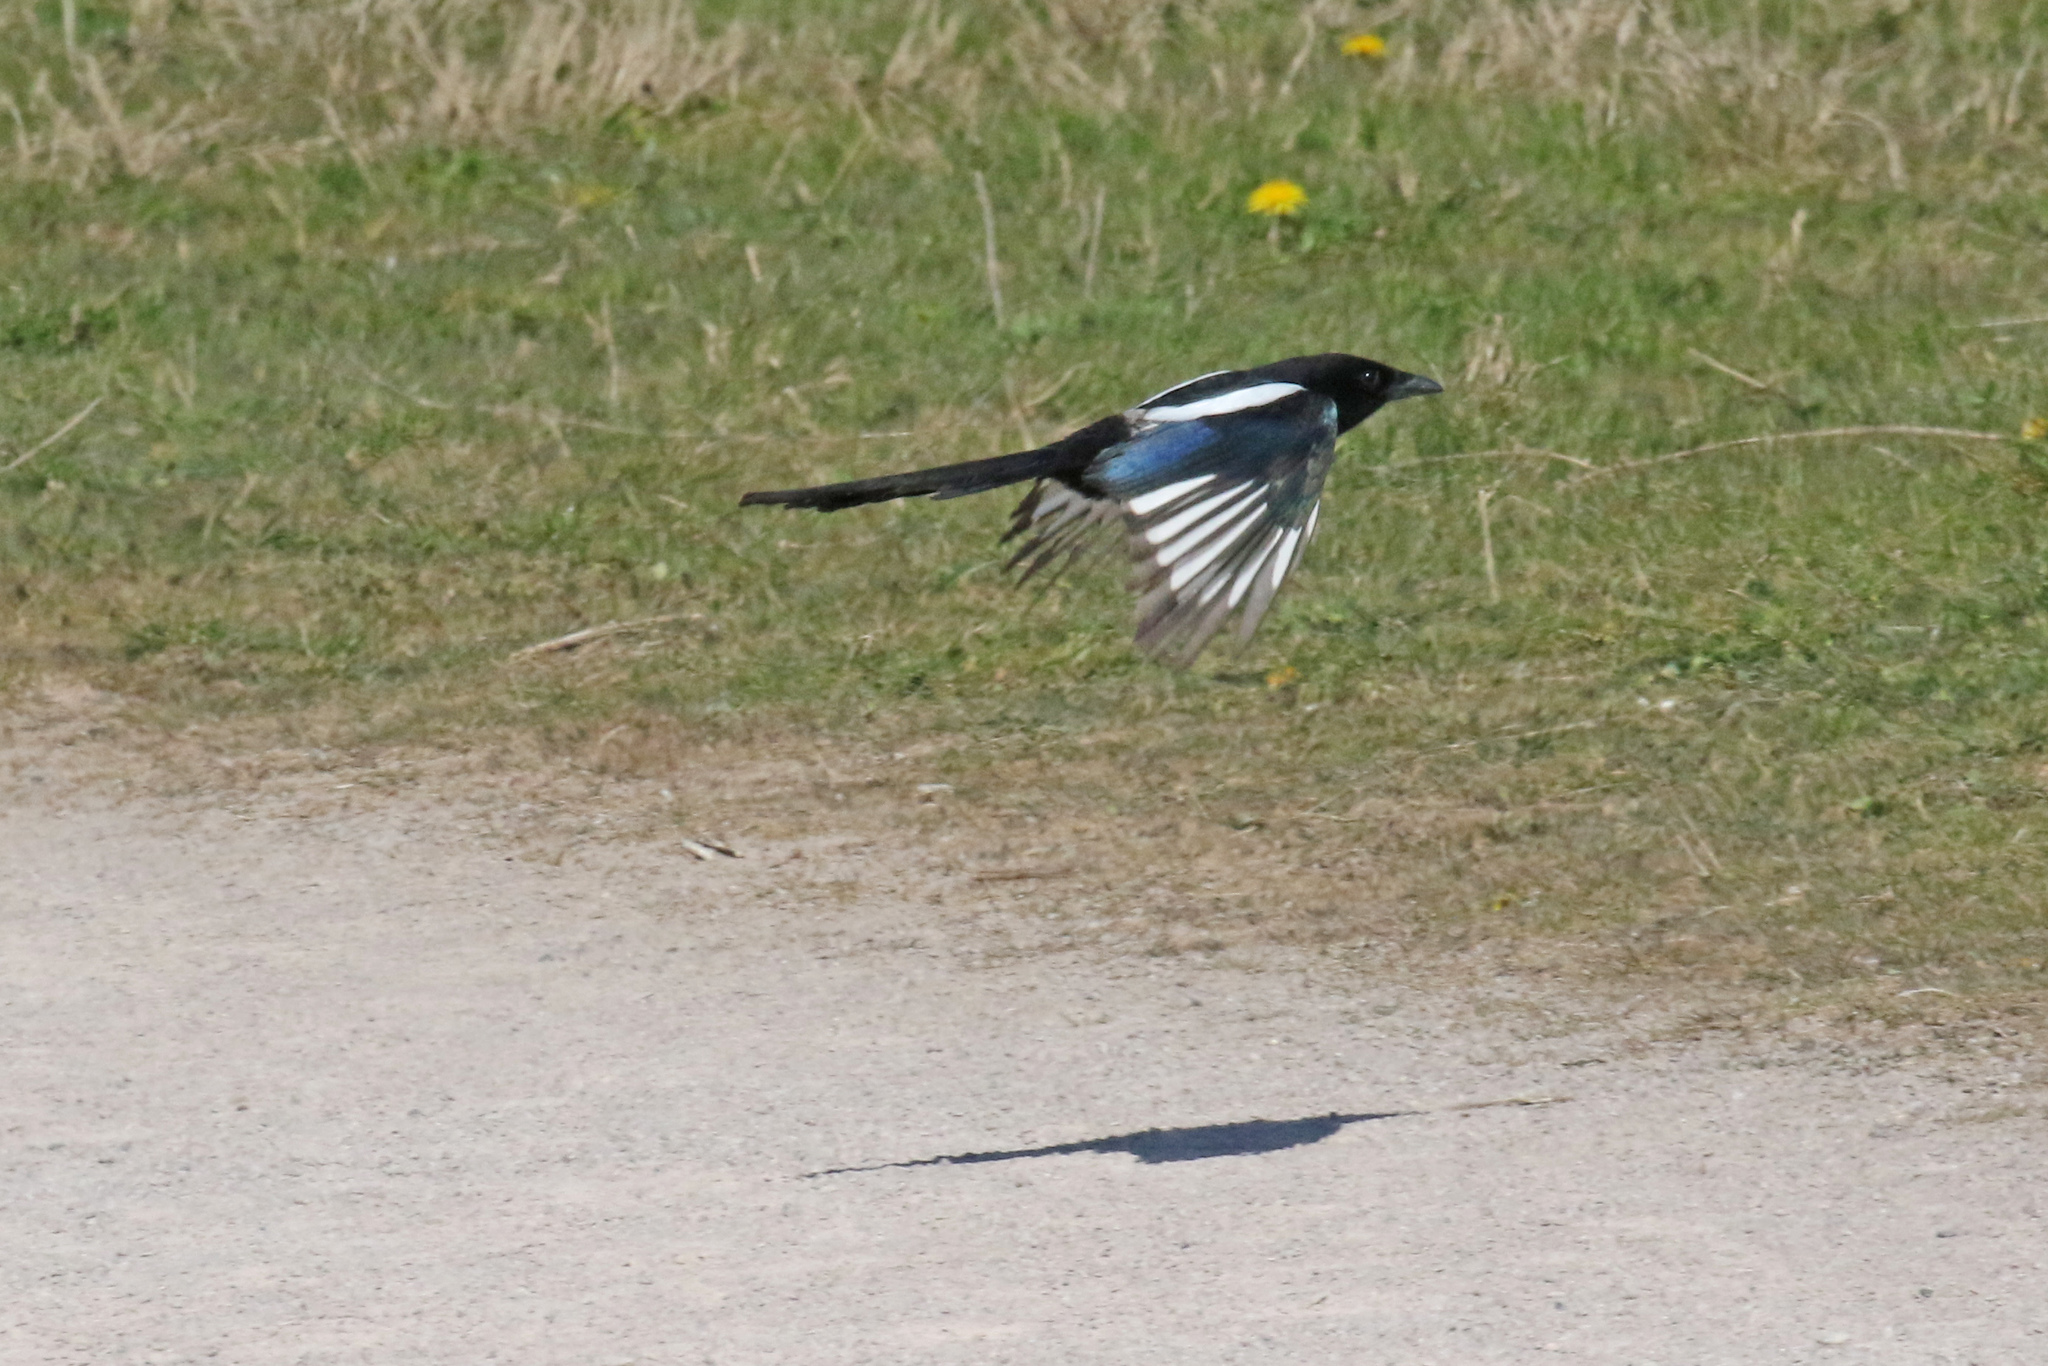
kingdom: Animalia
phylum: Chordata
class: Aves
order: Passeriformes
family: Corvidae
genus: Pica
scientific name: Pica pica
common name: Eurasian magpie
